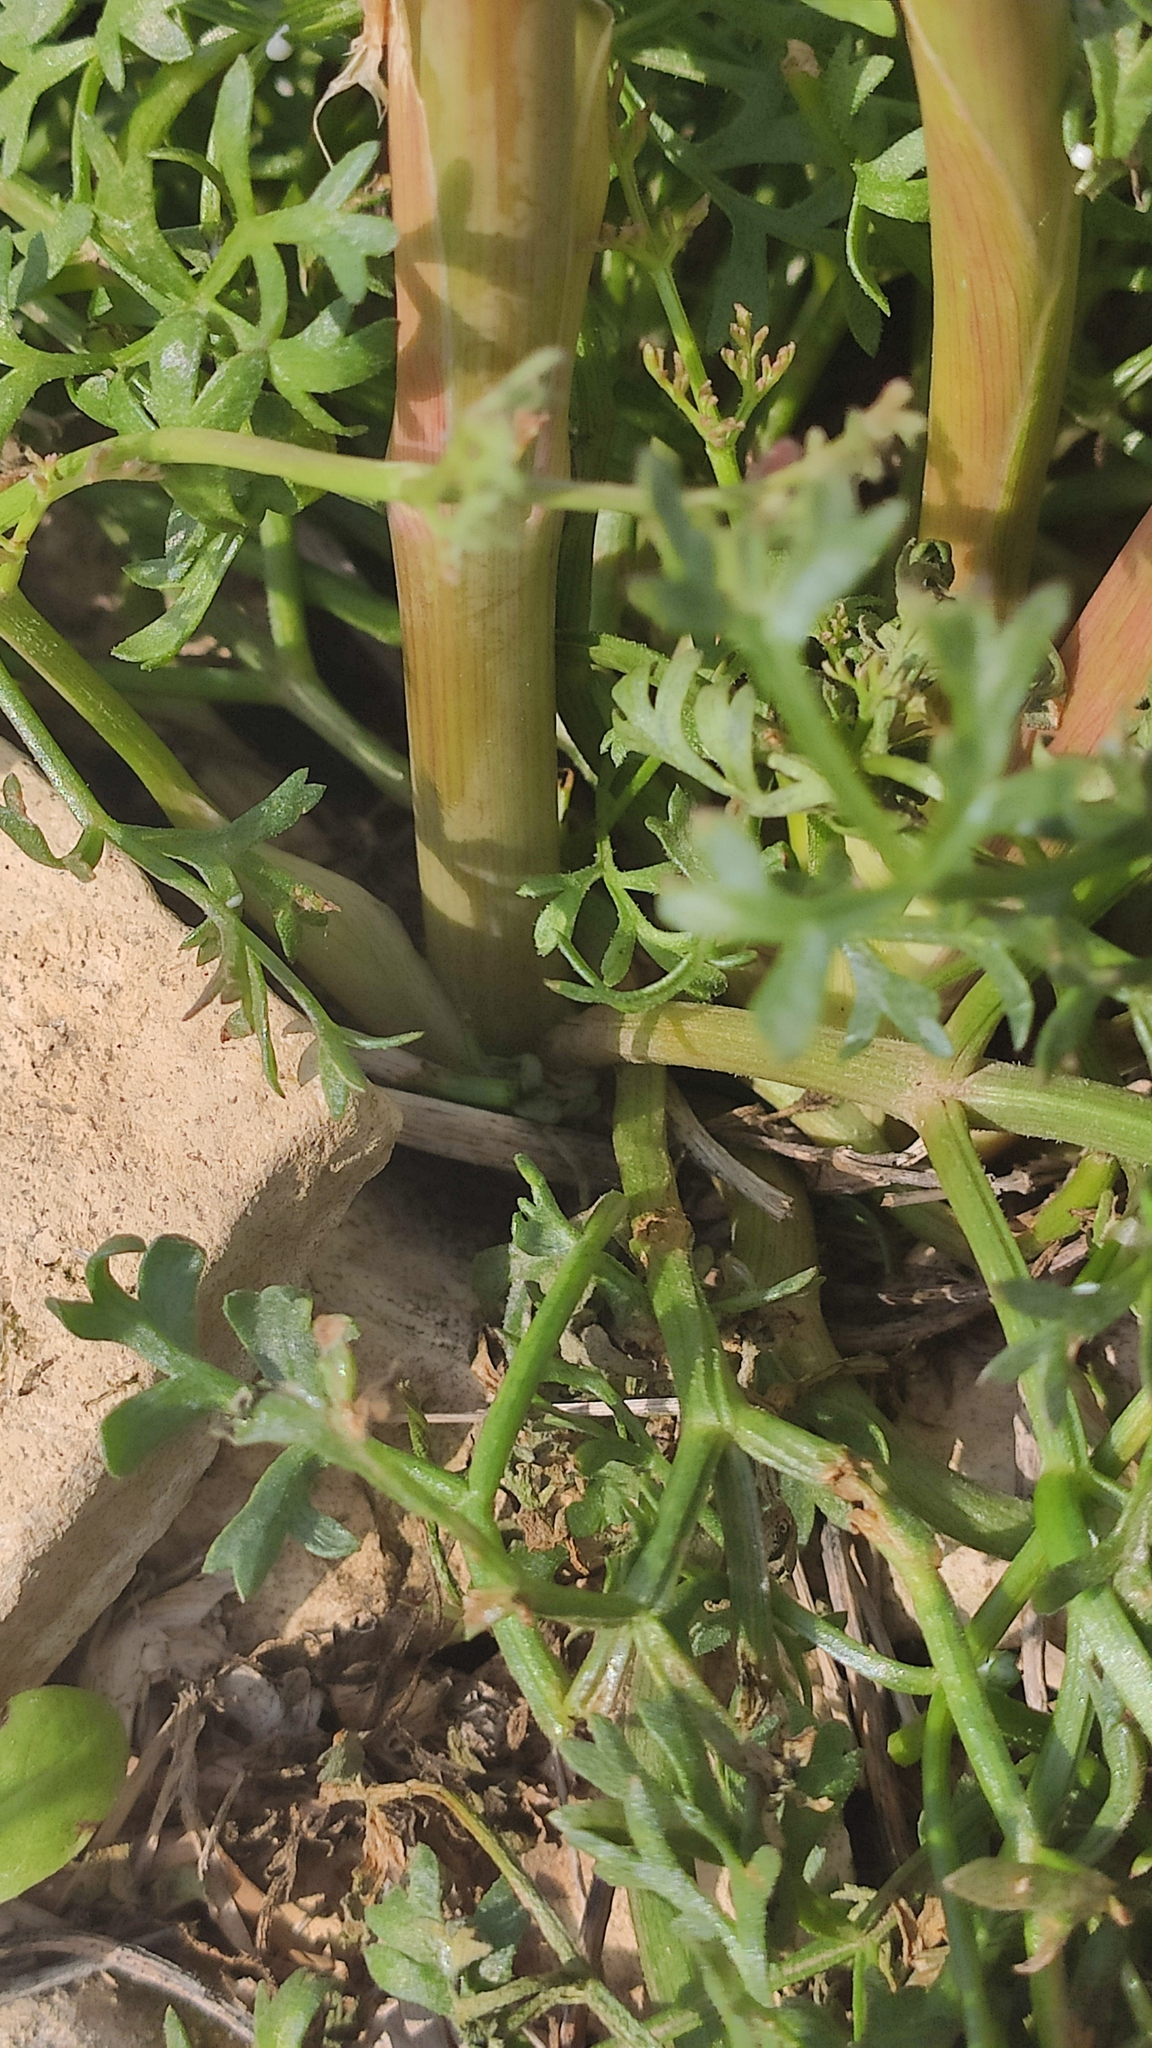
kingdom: Plantae
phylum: Tracheophyta
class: Magnoliopsida
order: Apiales
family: Apiaceae
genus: Ferula
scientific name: Ferula caspica
